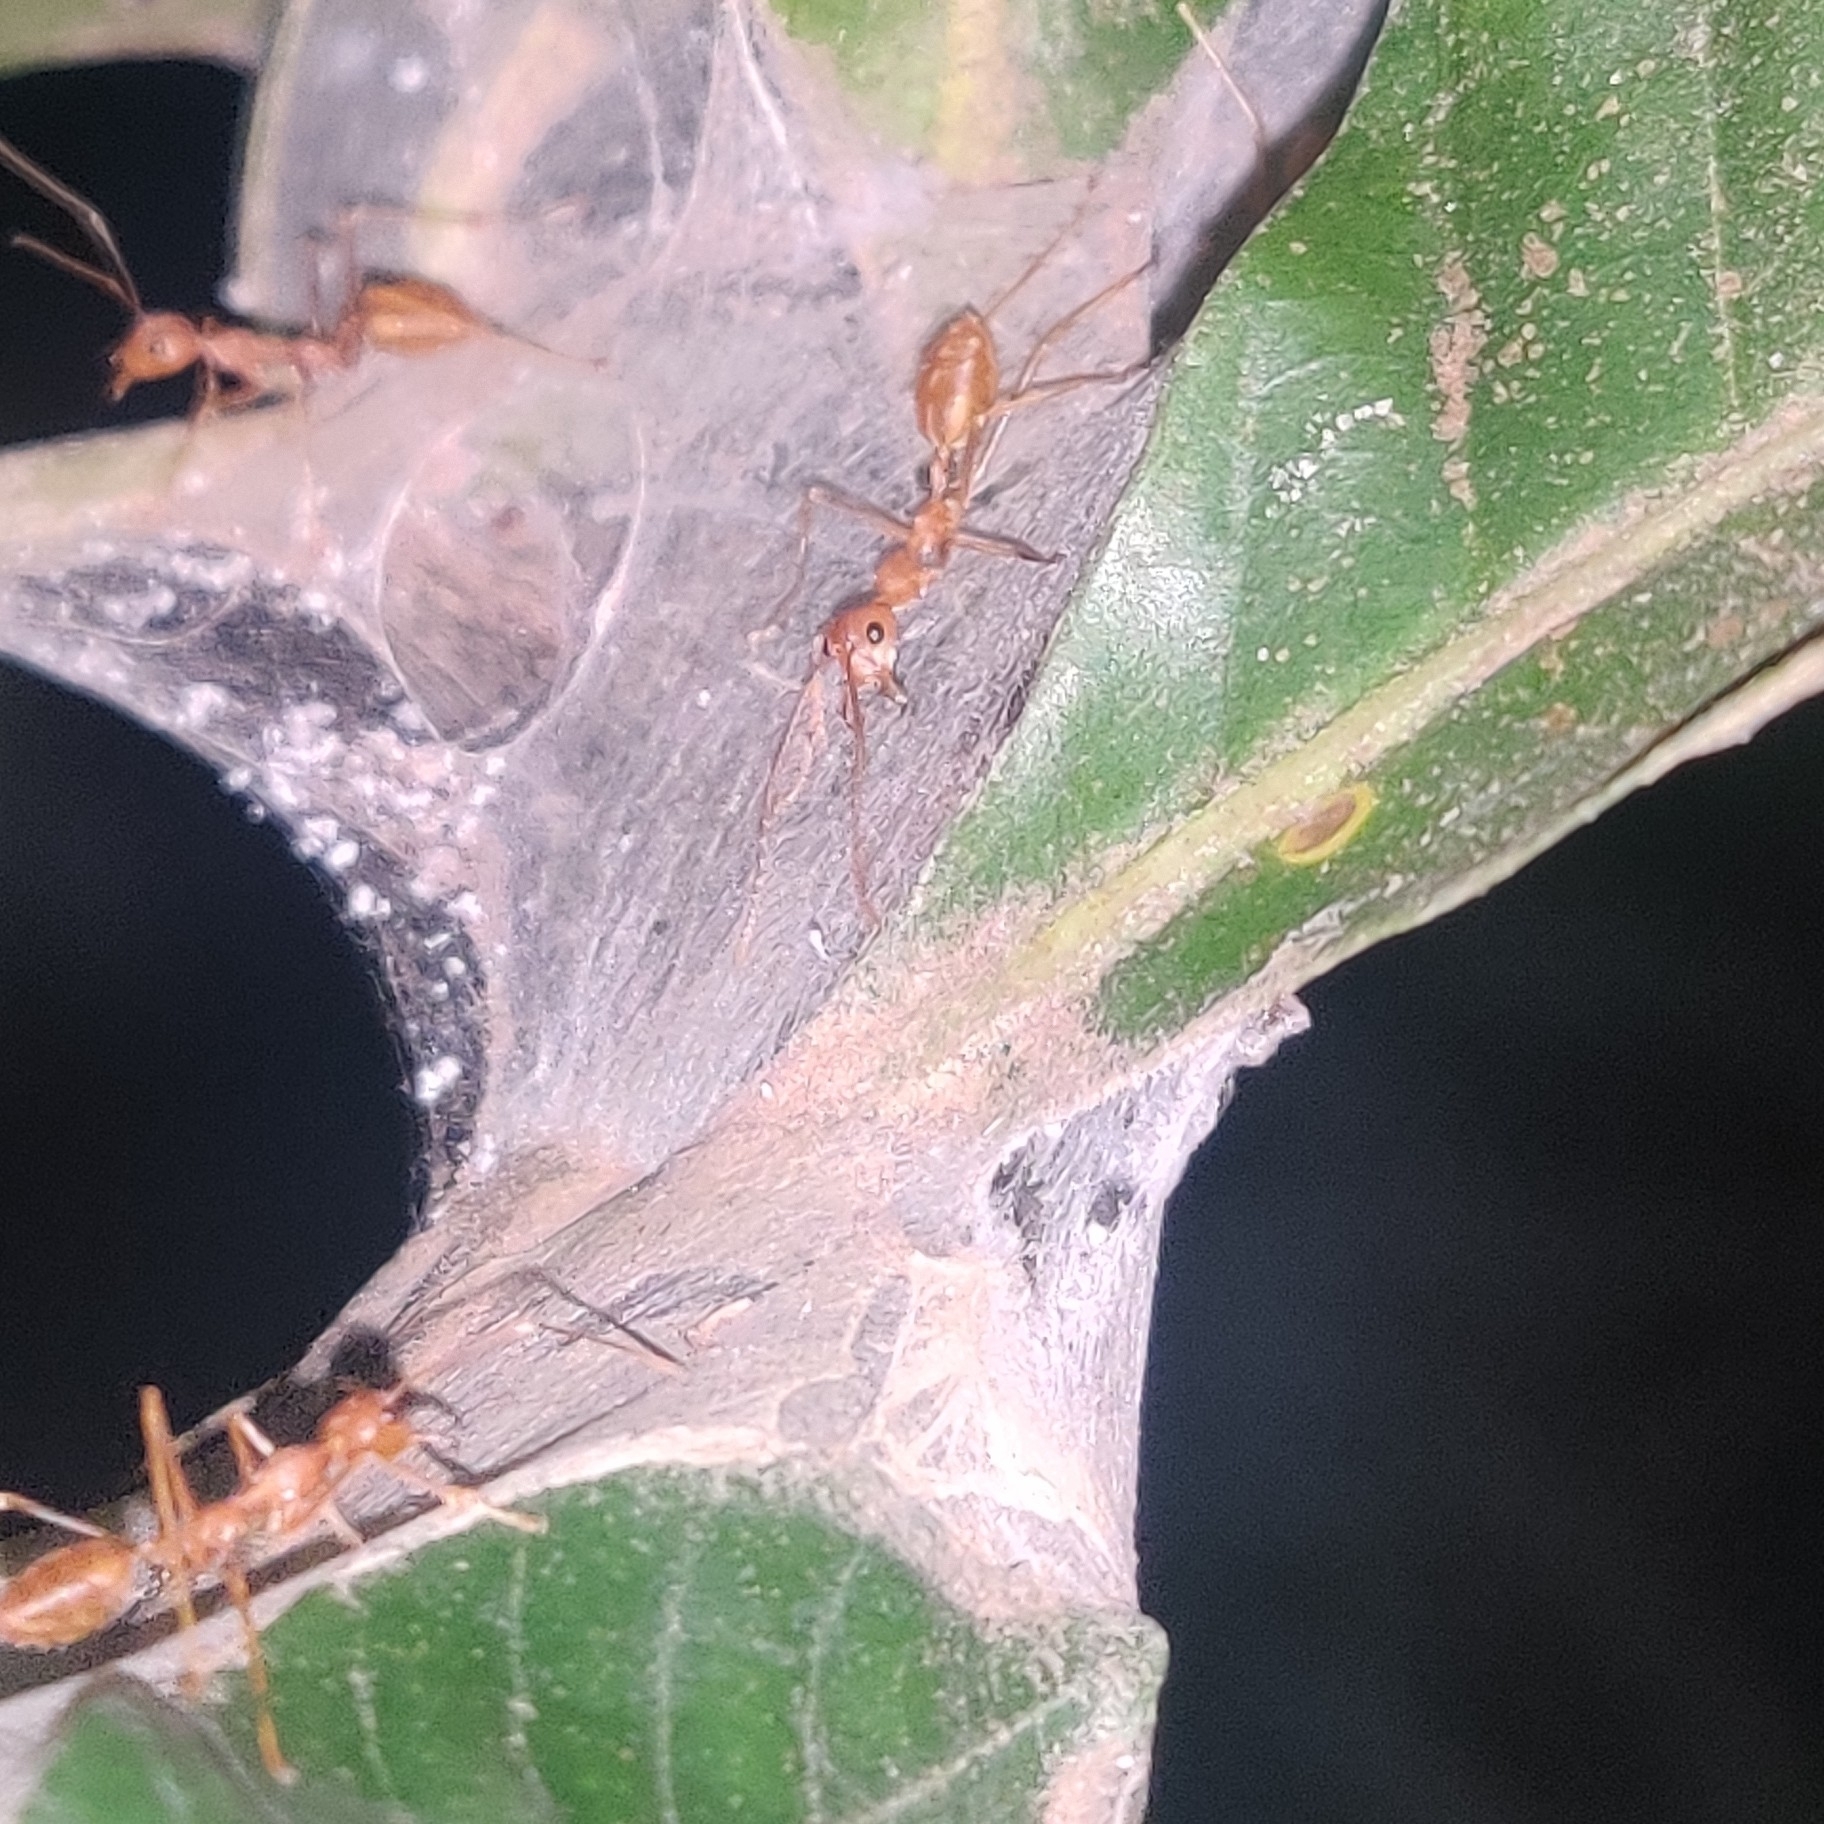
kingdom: Animalia
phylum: Arthropoda
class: Insecta
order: Hymenoptera
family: Formicidae
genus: Oecophylla
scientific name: Oecophylla smaragdina
